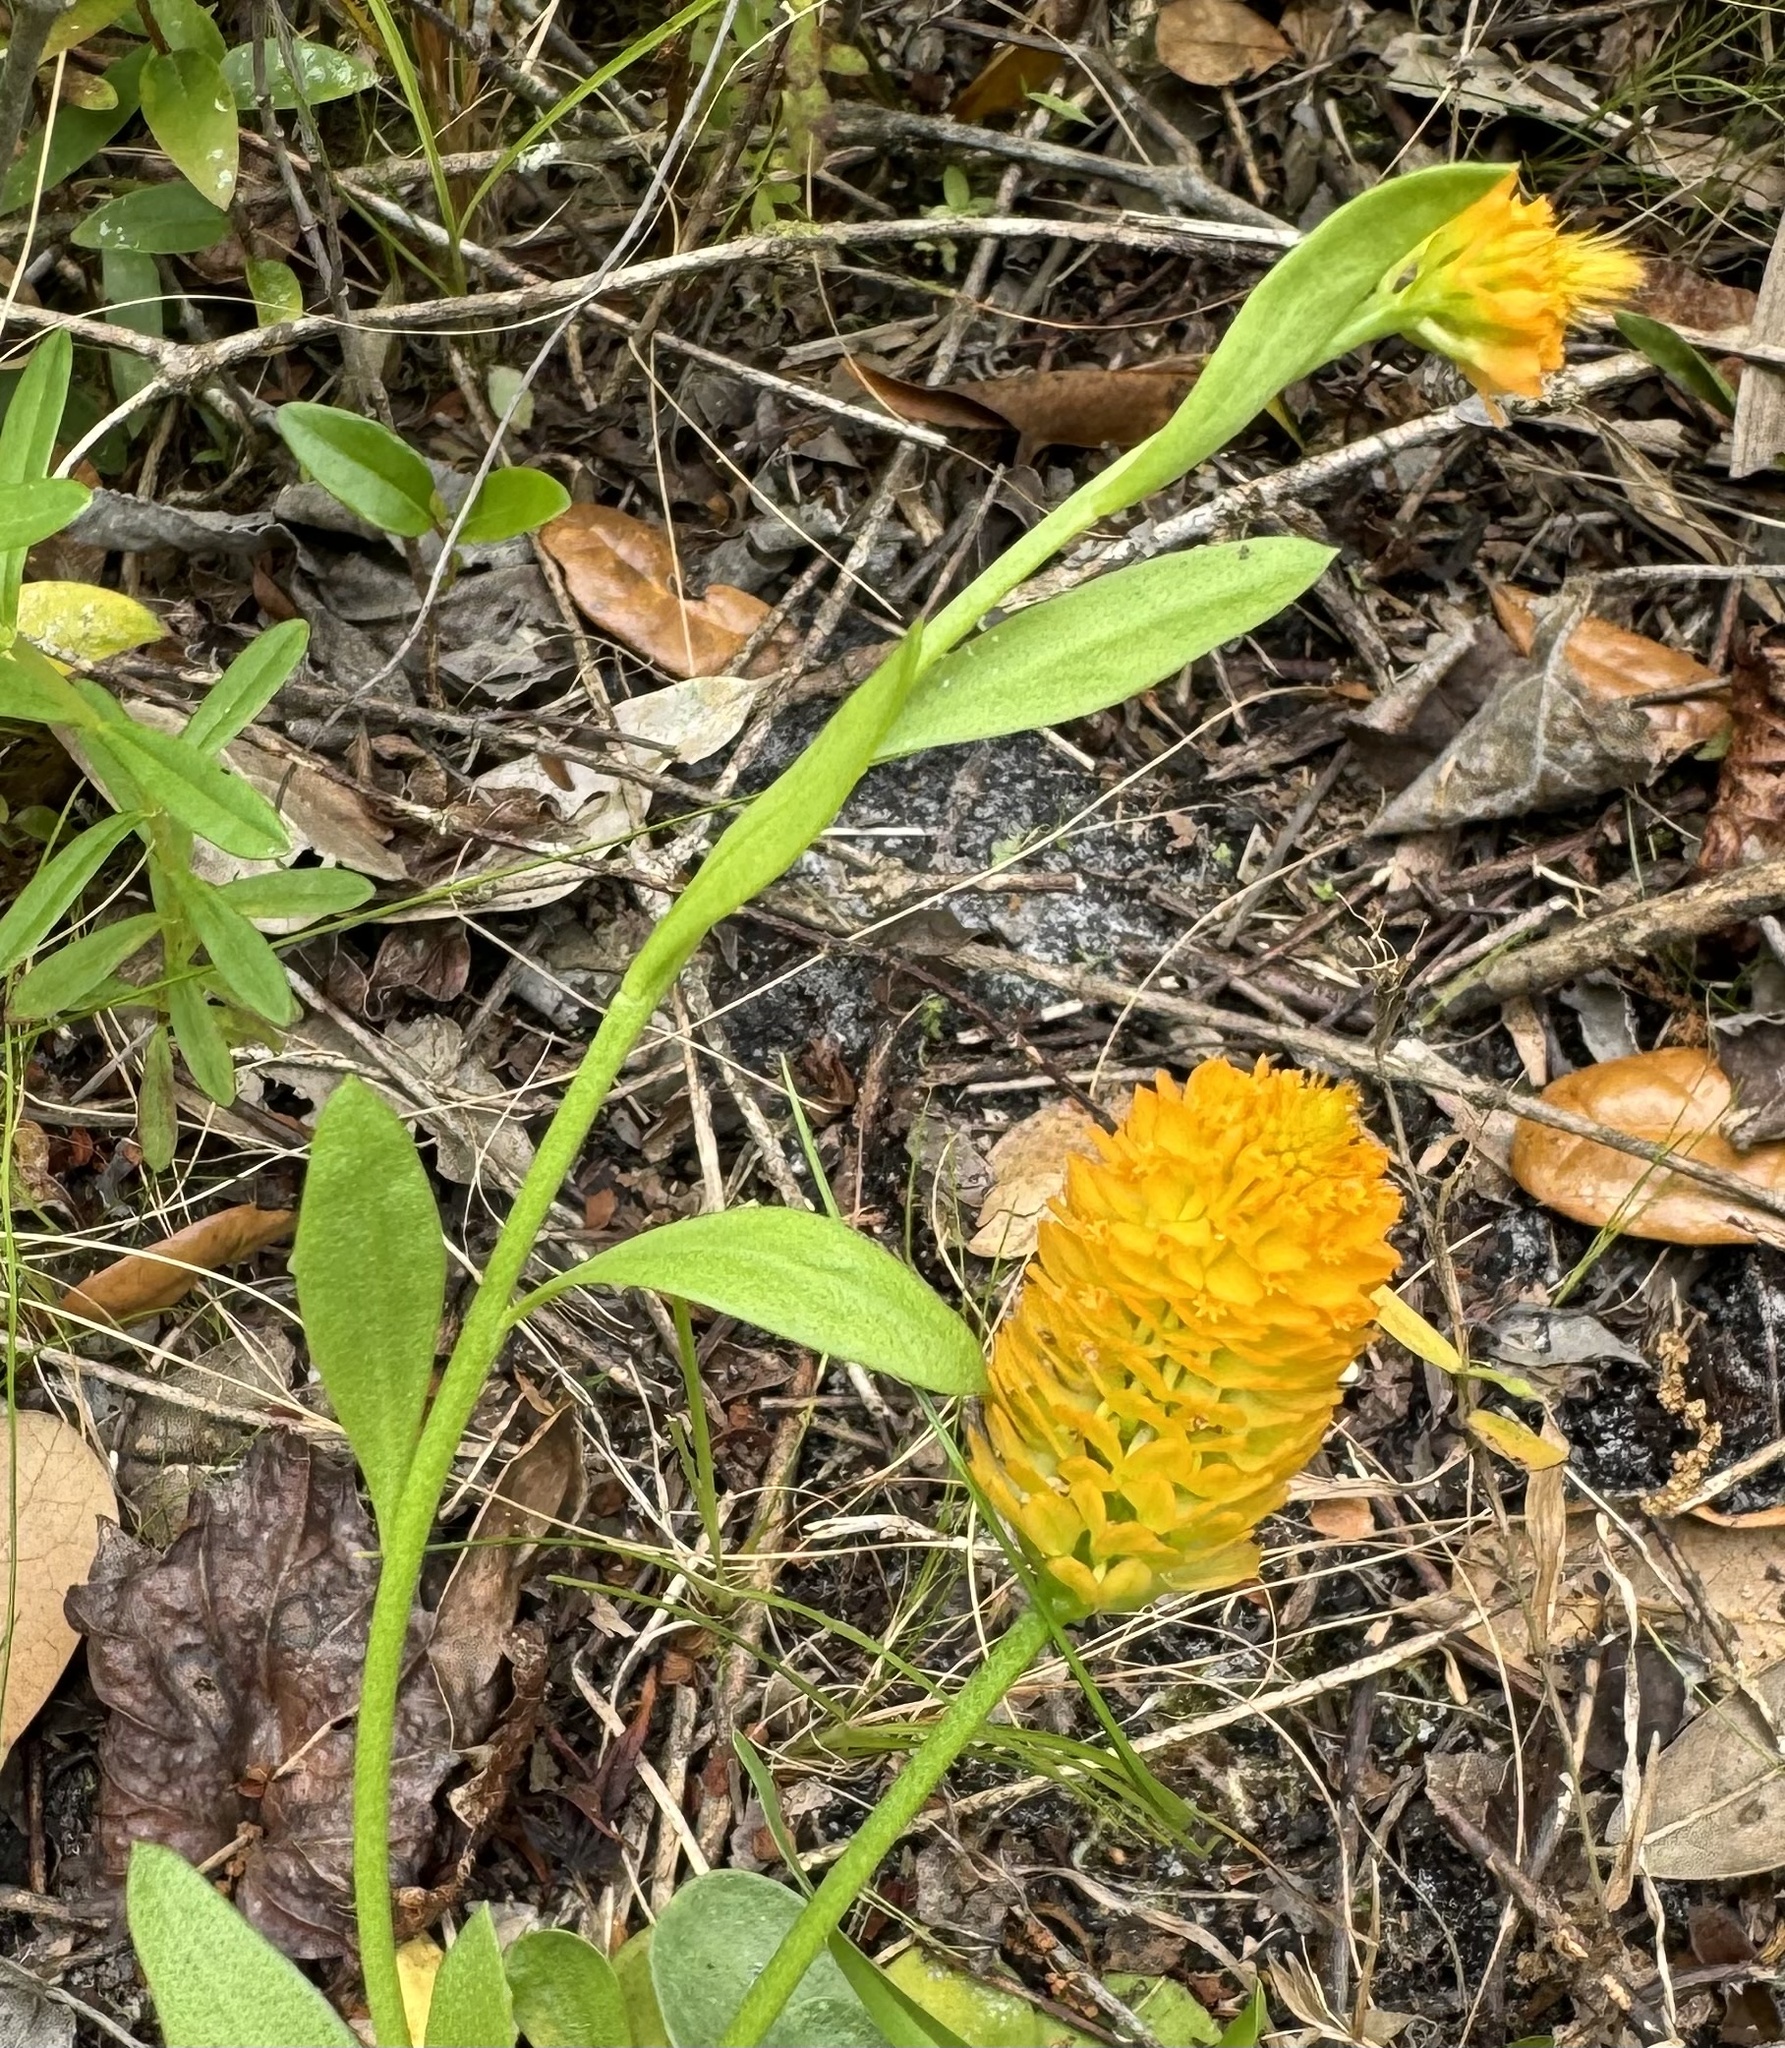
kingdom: Plantae
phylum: Tracheophyta
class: Magnoliopsida
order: Fabales
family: Polygalaceae
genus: Polygala
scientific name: Polygala lutea
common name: Orange milkwort
